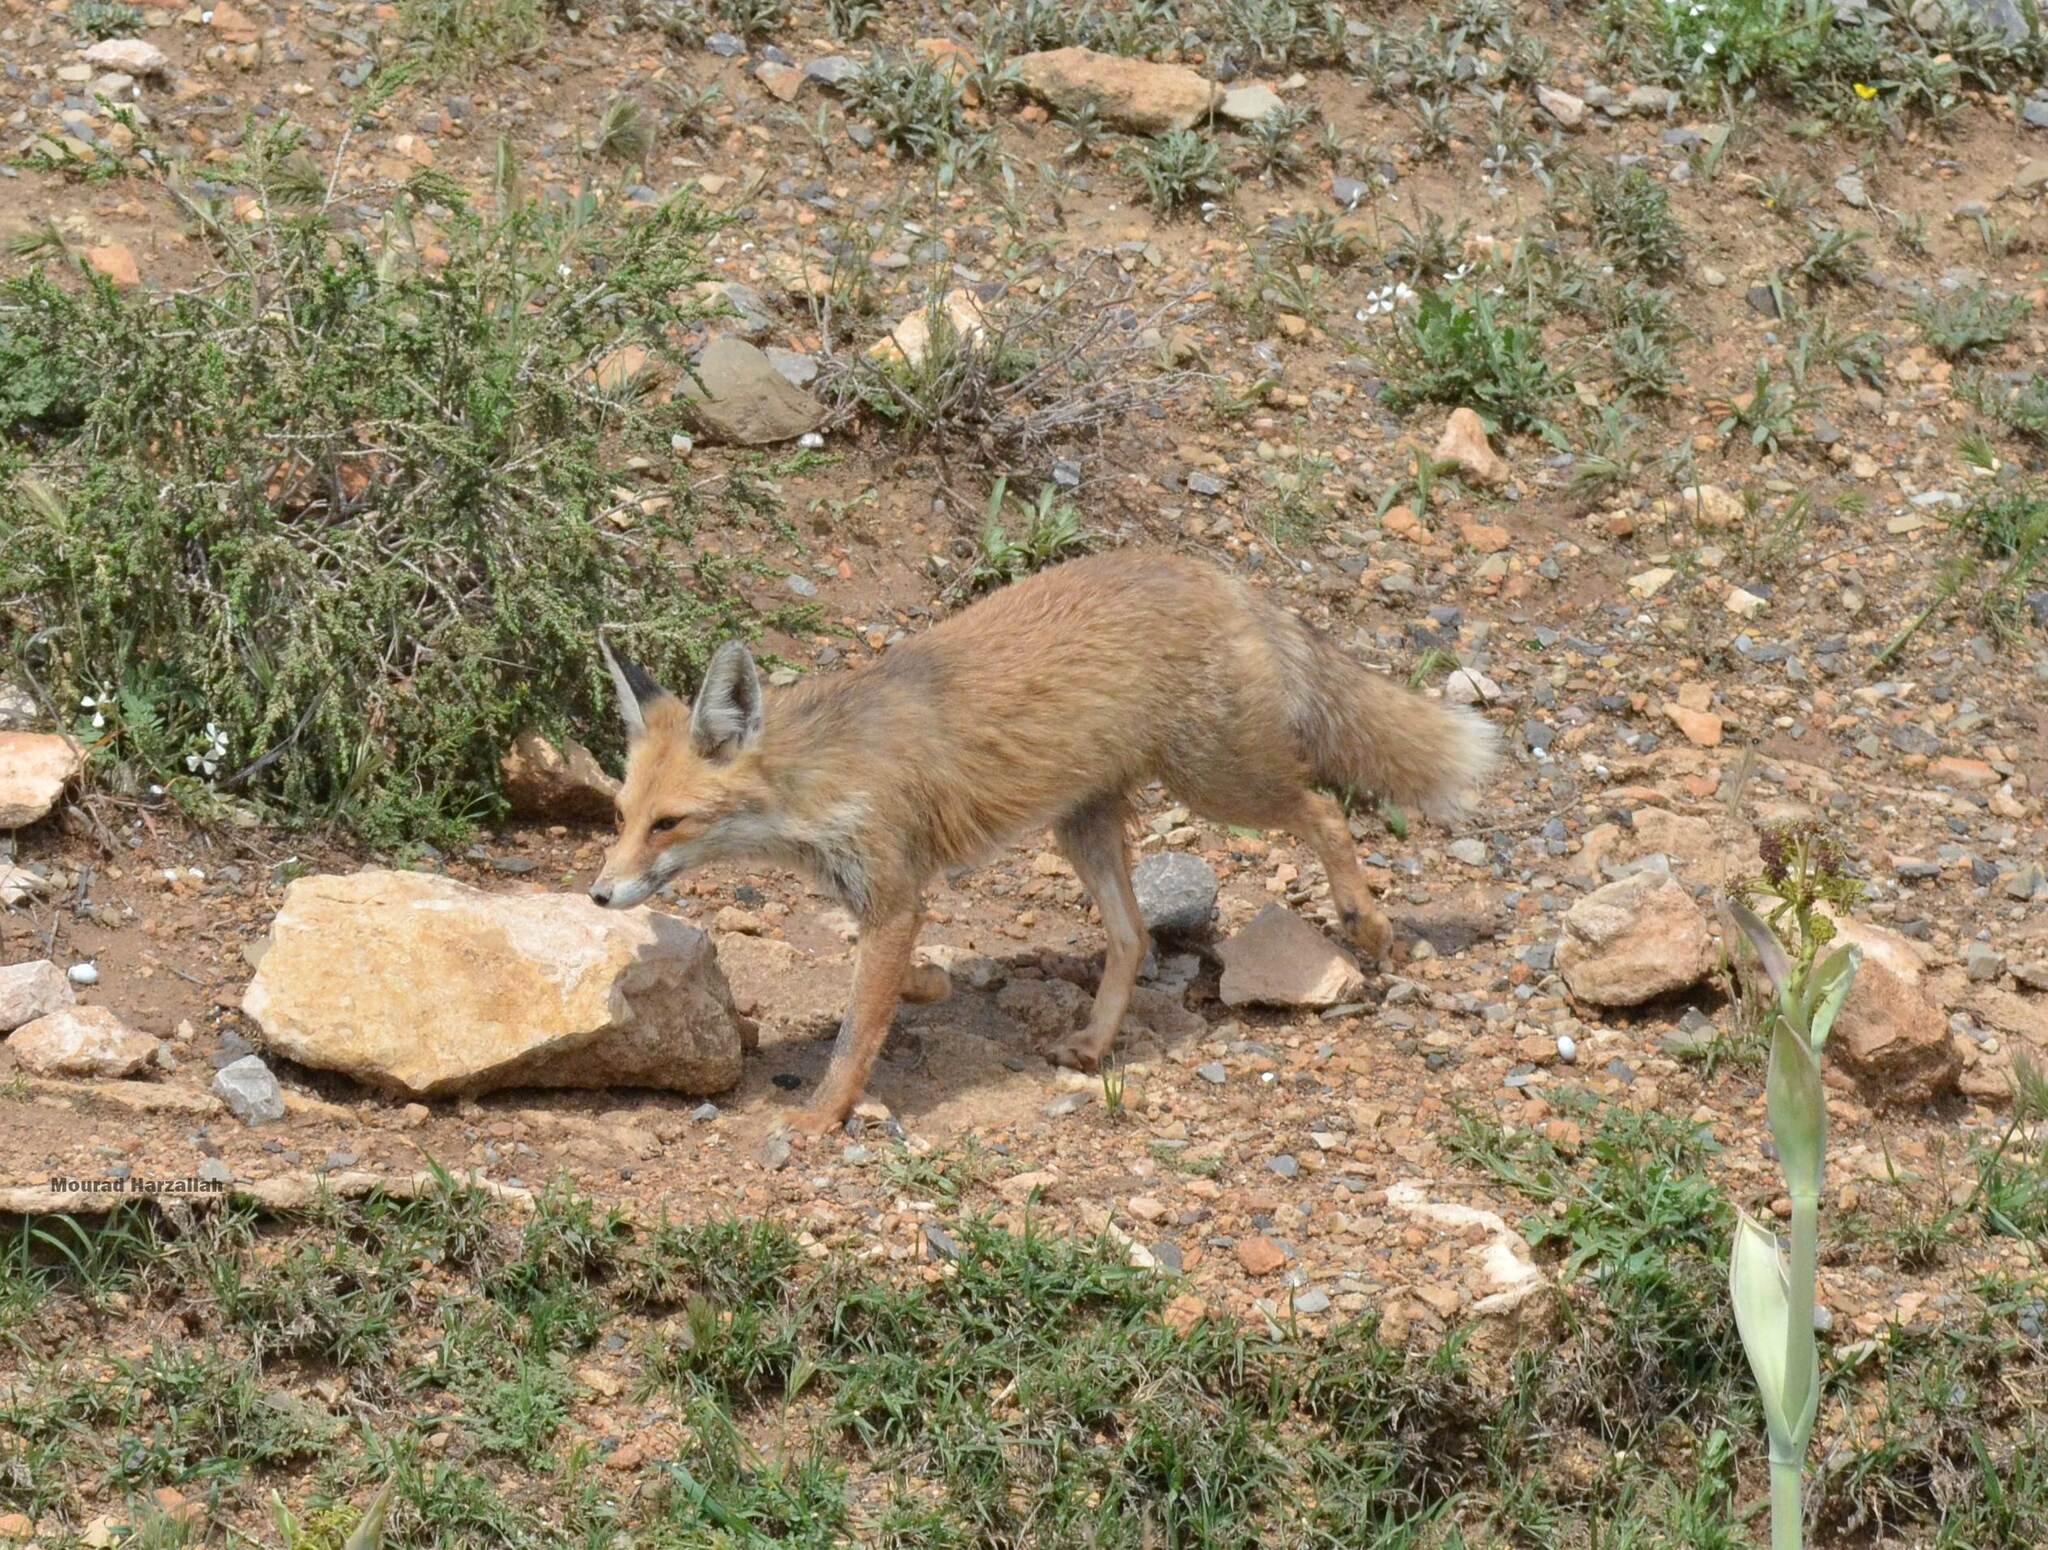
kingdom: Animalia
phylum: Chordata
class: Mammalia
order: Carnivora
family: Canidae
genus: Vulpes
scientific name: Vulpes vulpes
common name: Red fox
